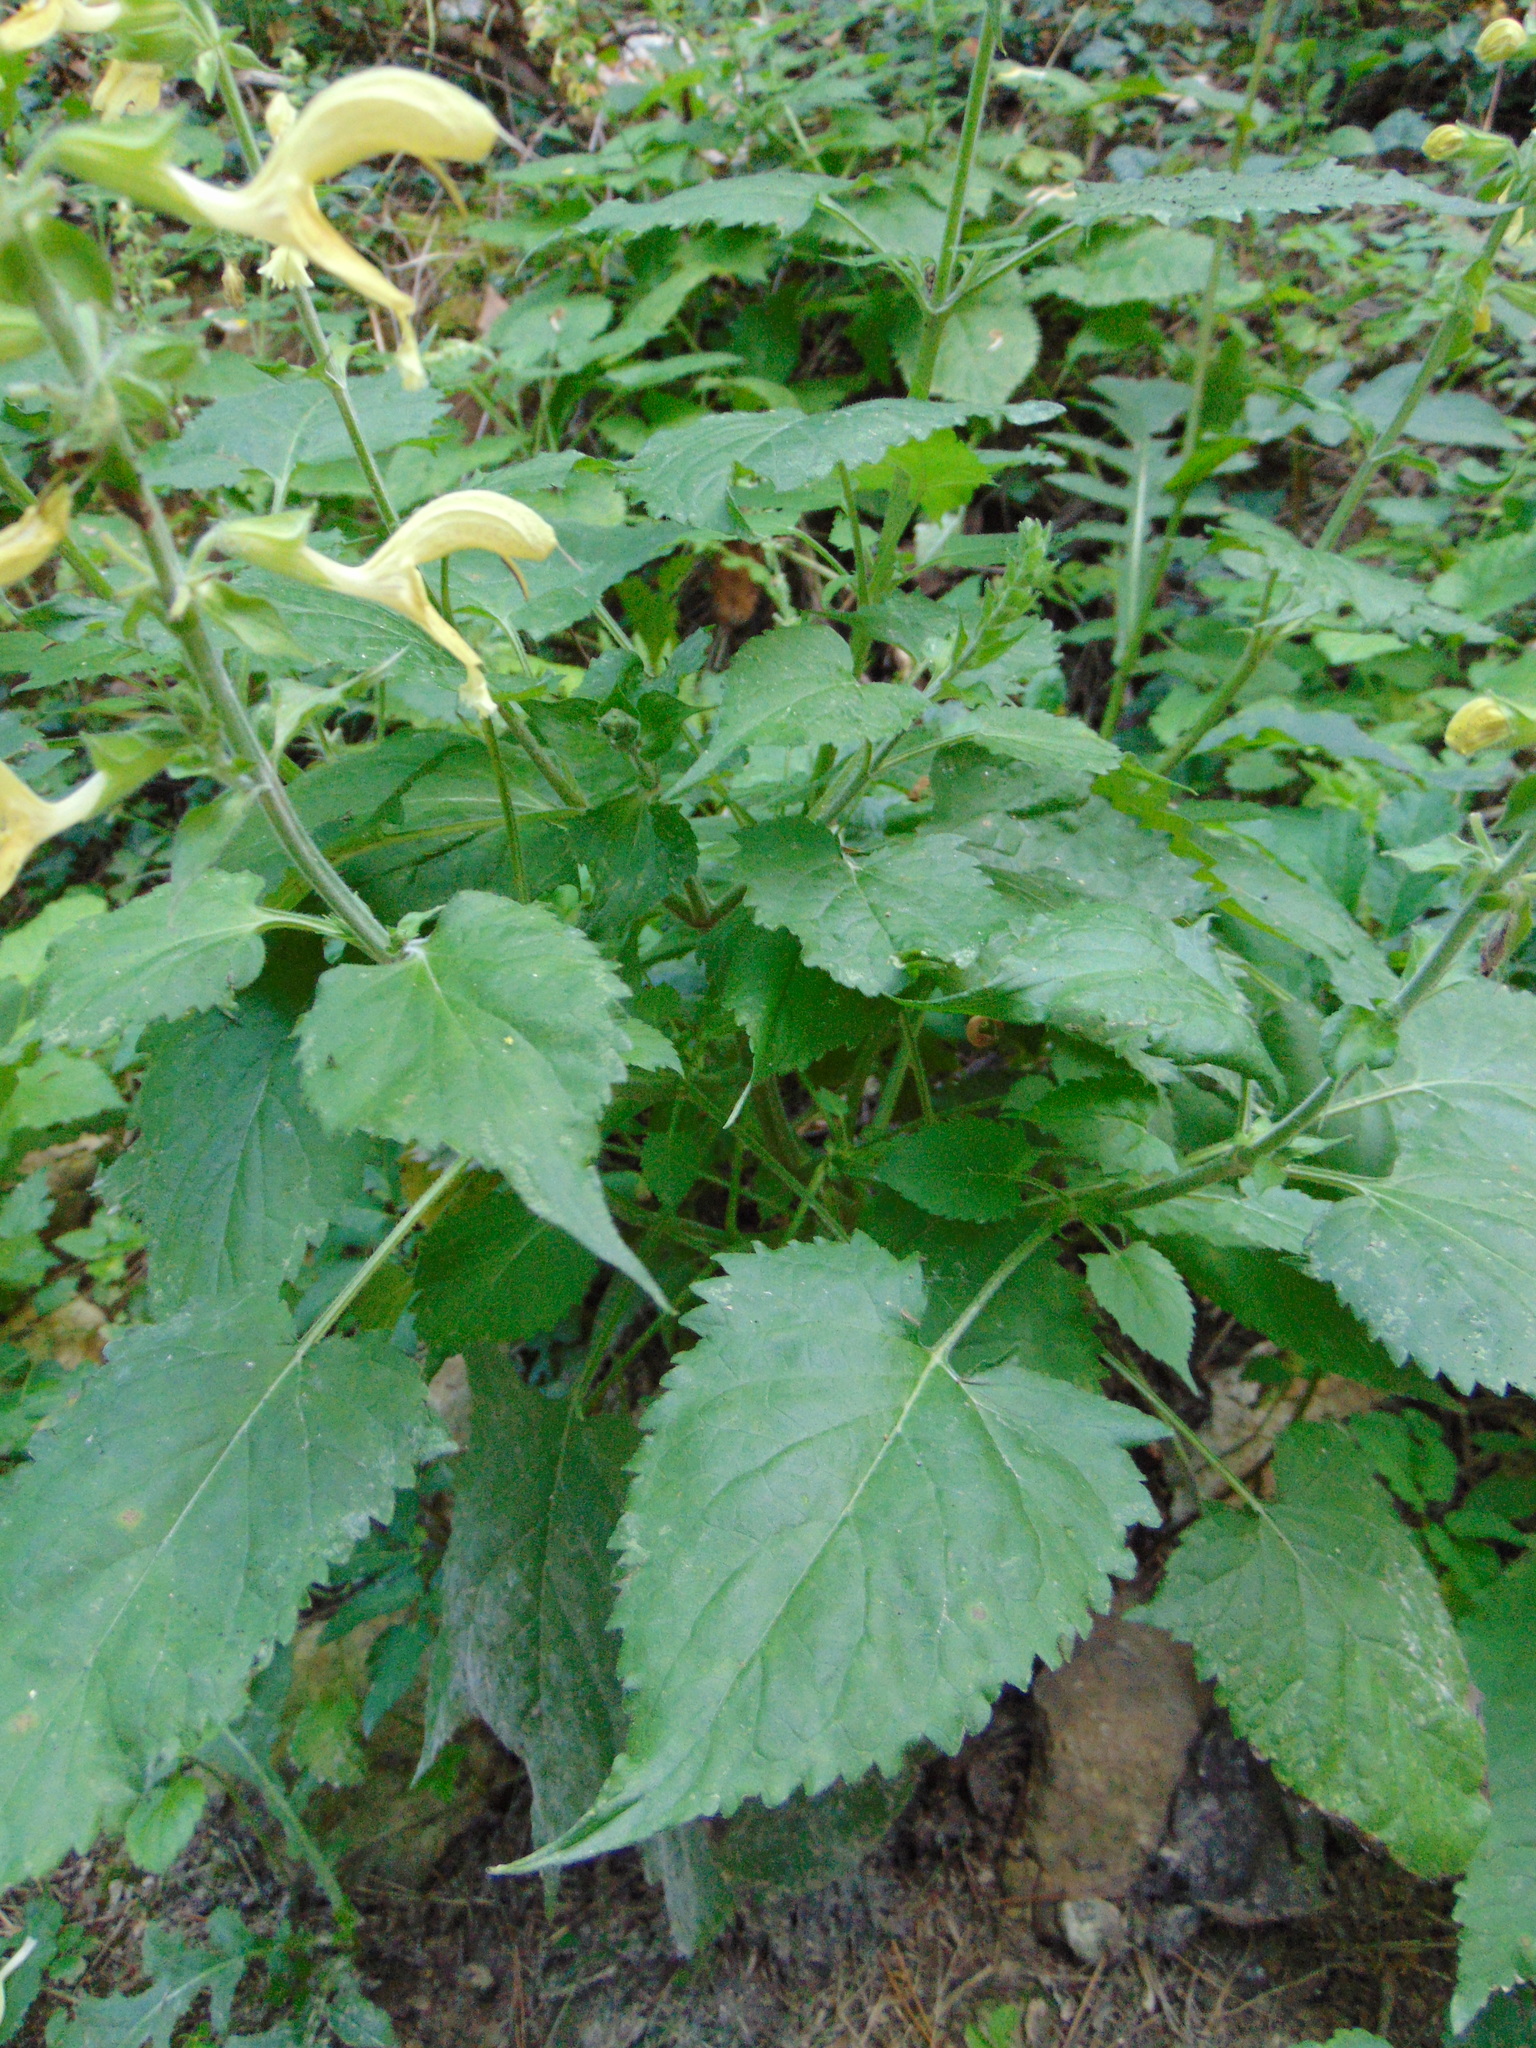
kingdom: Plantae
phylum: Tracheophyta
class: Magnoliopsida
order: Lamiales
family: Lamiaceae
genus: Salvia
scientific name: Salvia glutinosa
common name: Sticky clary
